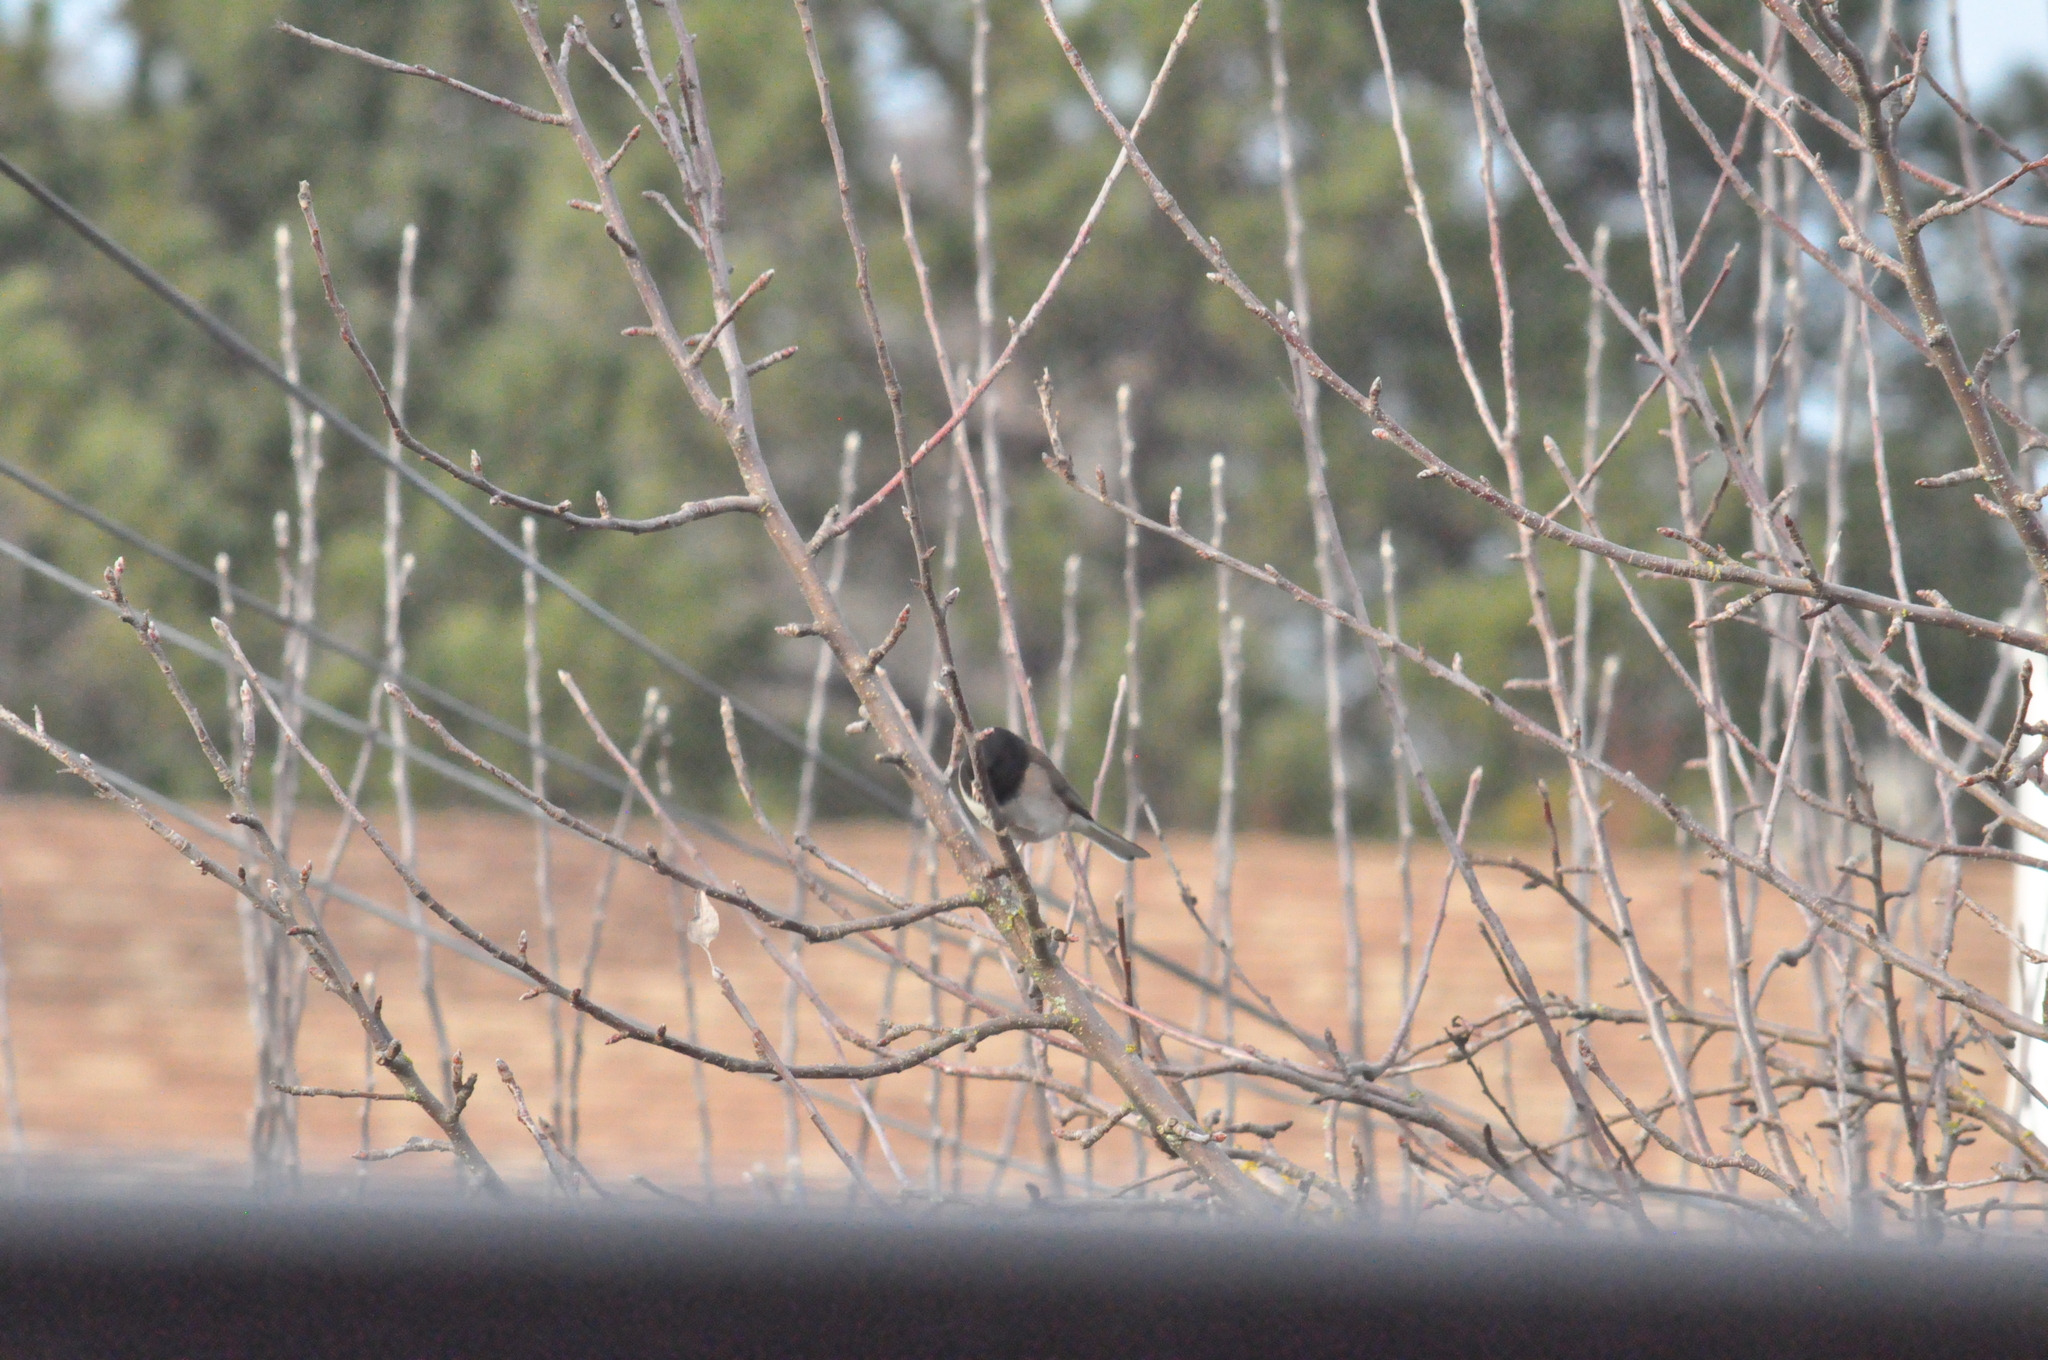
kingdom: Animalia
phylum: Chordata
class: Aves
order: Passeriformes
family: Passerellidae
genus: Junco
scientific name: Junco hyemalis
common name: Dark-eyed junco
